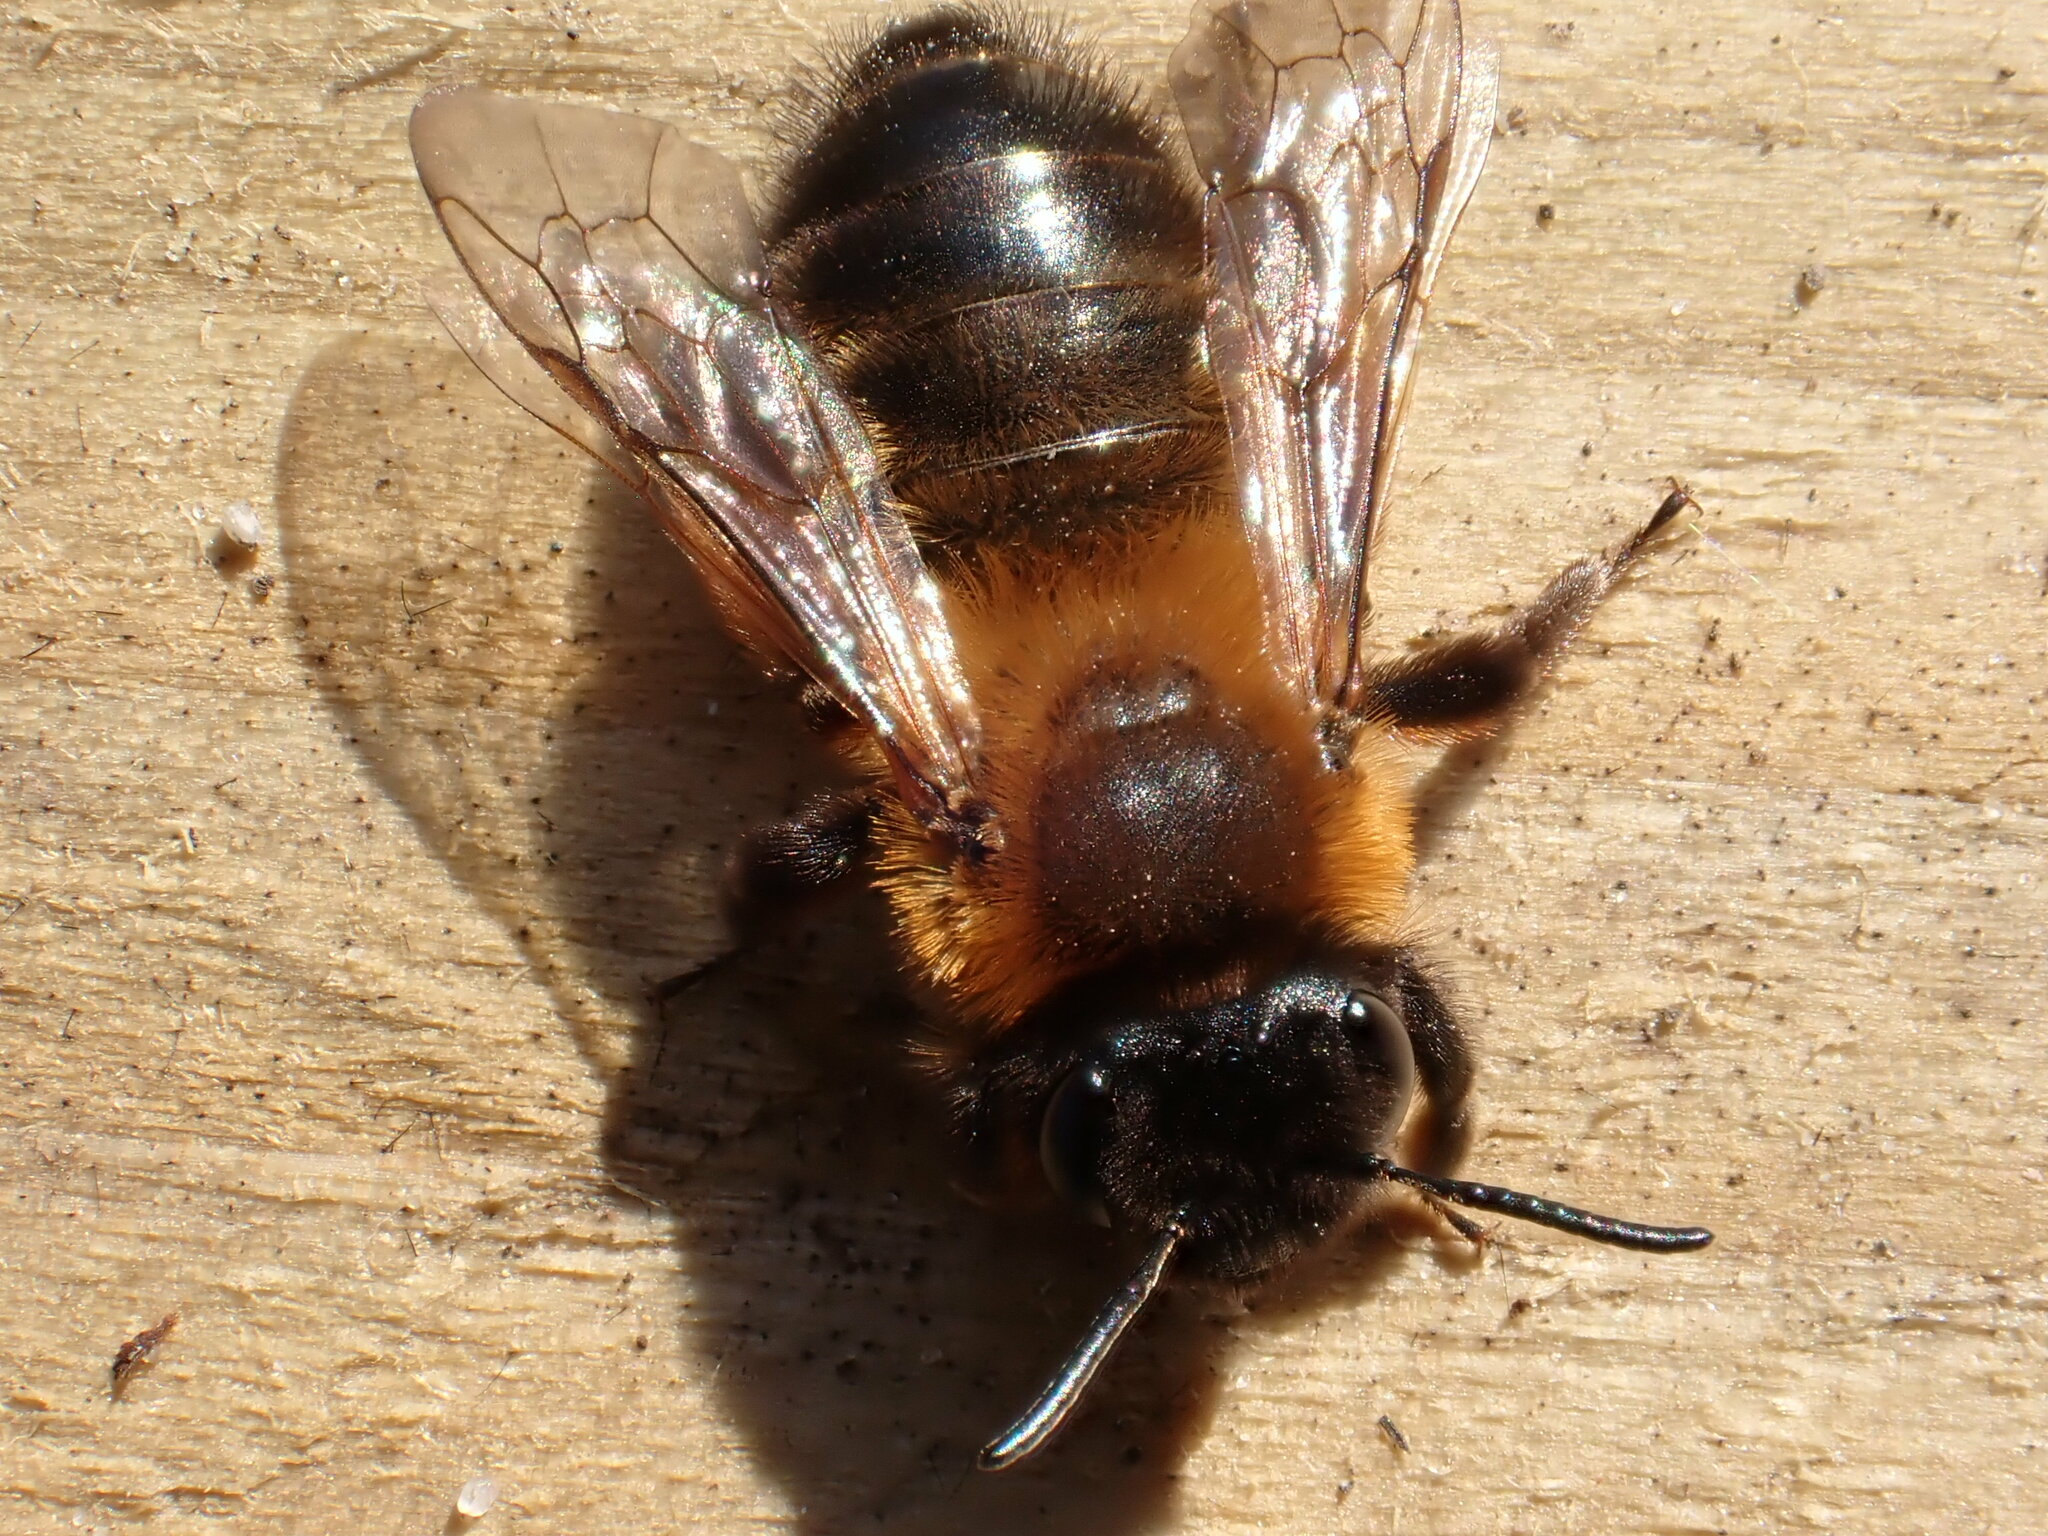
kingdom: Animalia
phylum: Arthropoda
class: Insecta
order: Hymenoptera
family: Andrenidae
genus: Andrena
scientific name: Andrena nigroaenea
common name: Buffish mining bee
